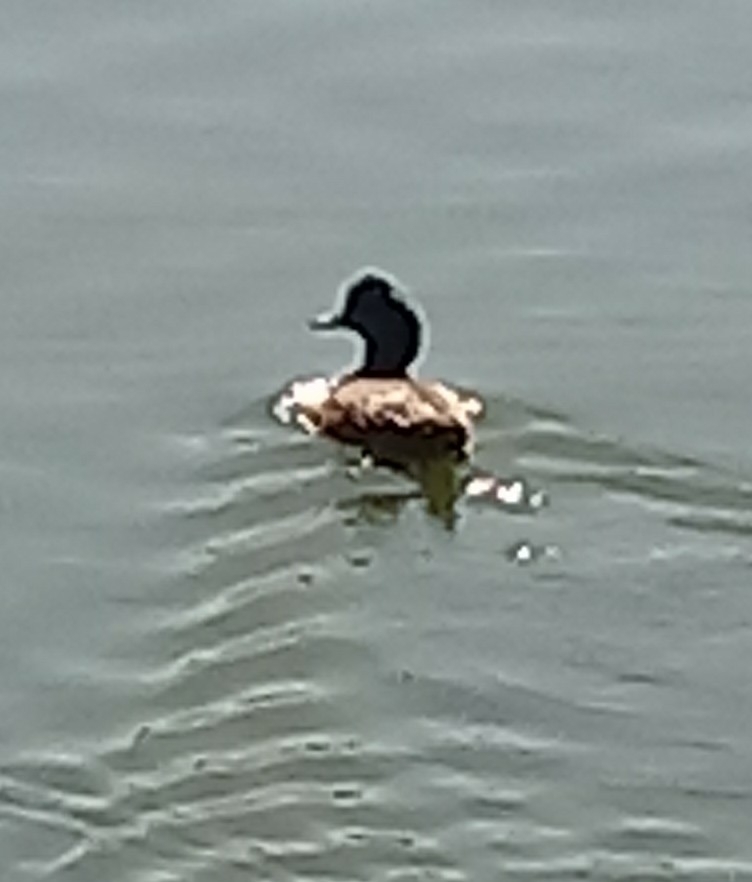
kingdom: Animalia
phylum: Chordata
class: Aves
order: Anseriformes
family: Anatidae
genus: Mareca
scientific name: Mareca americana
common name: American wigeon
